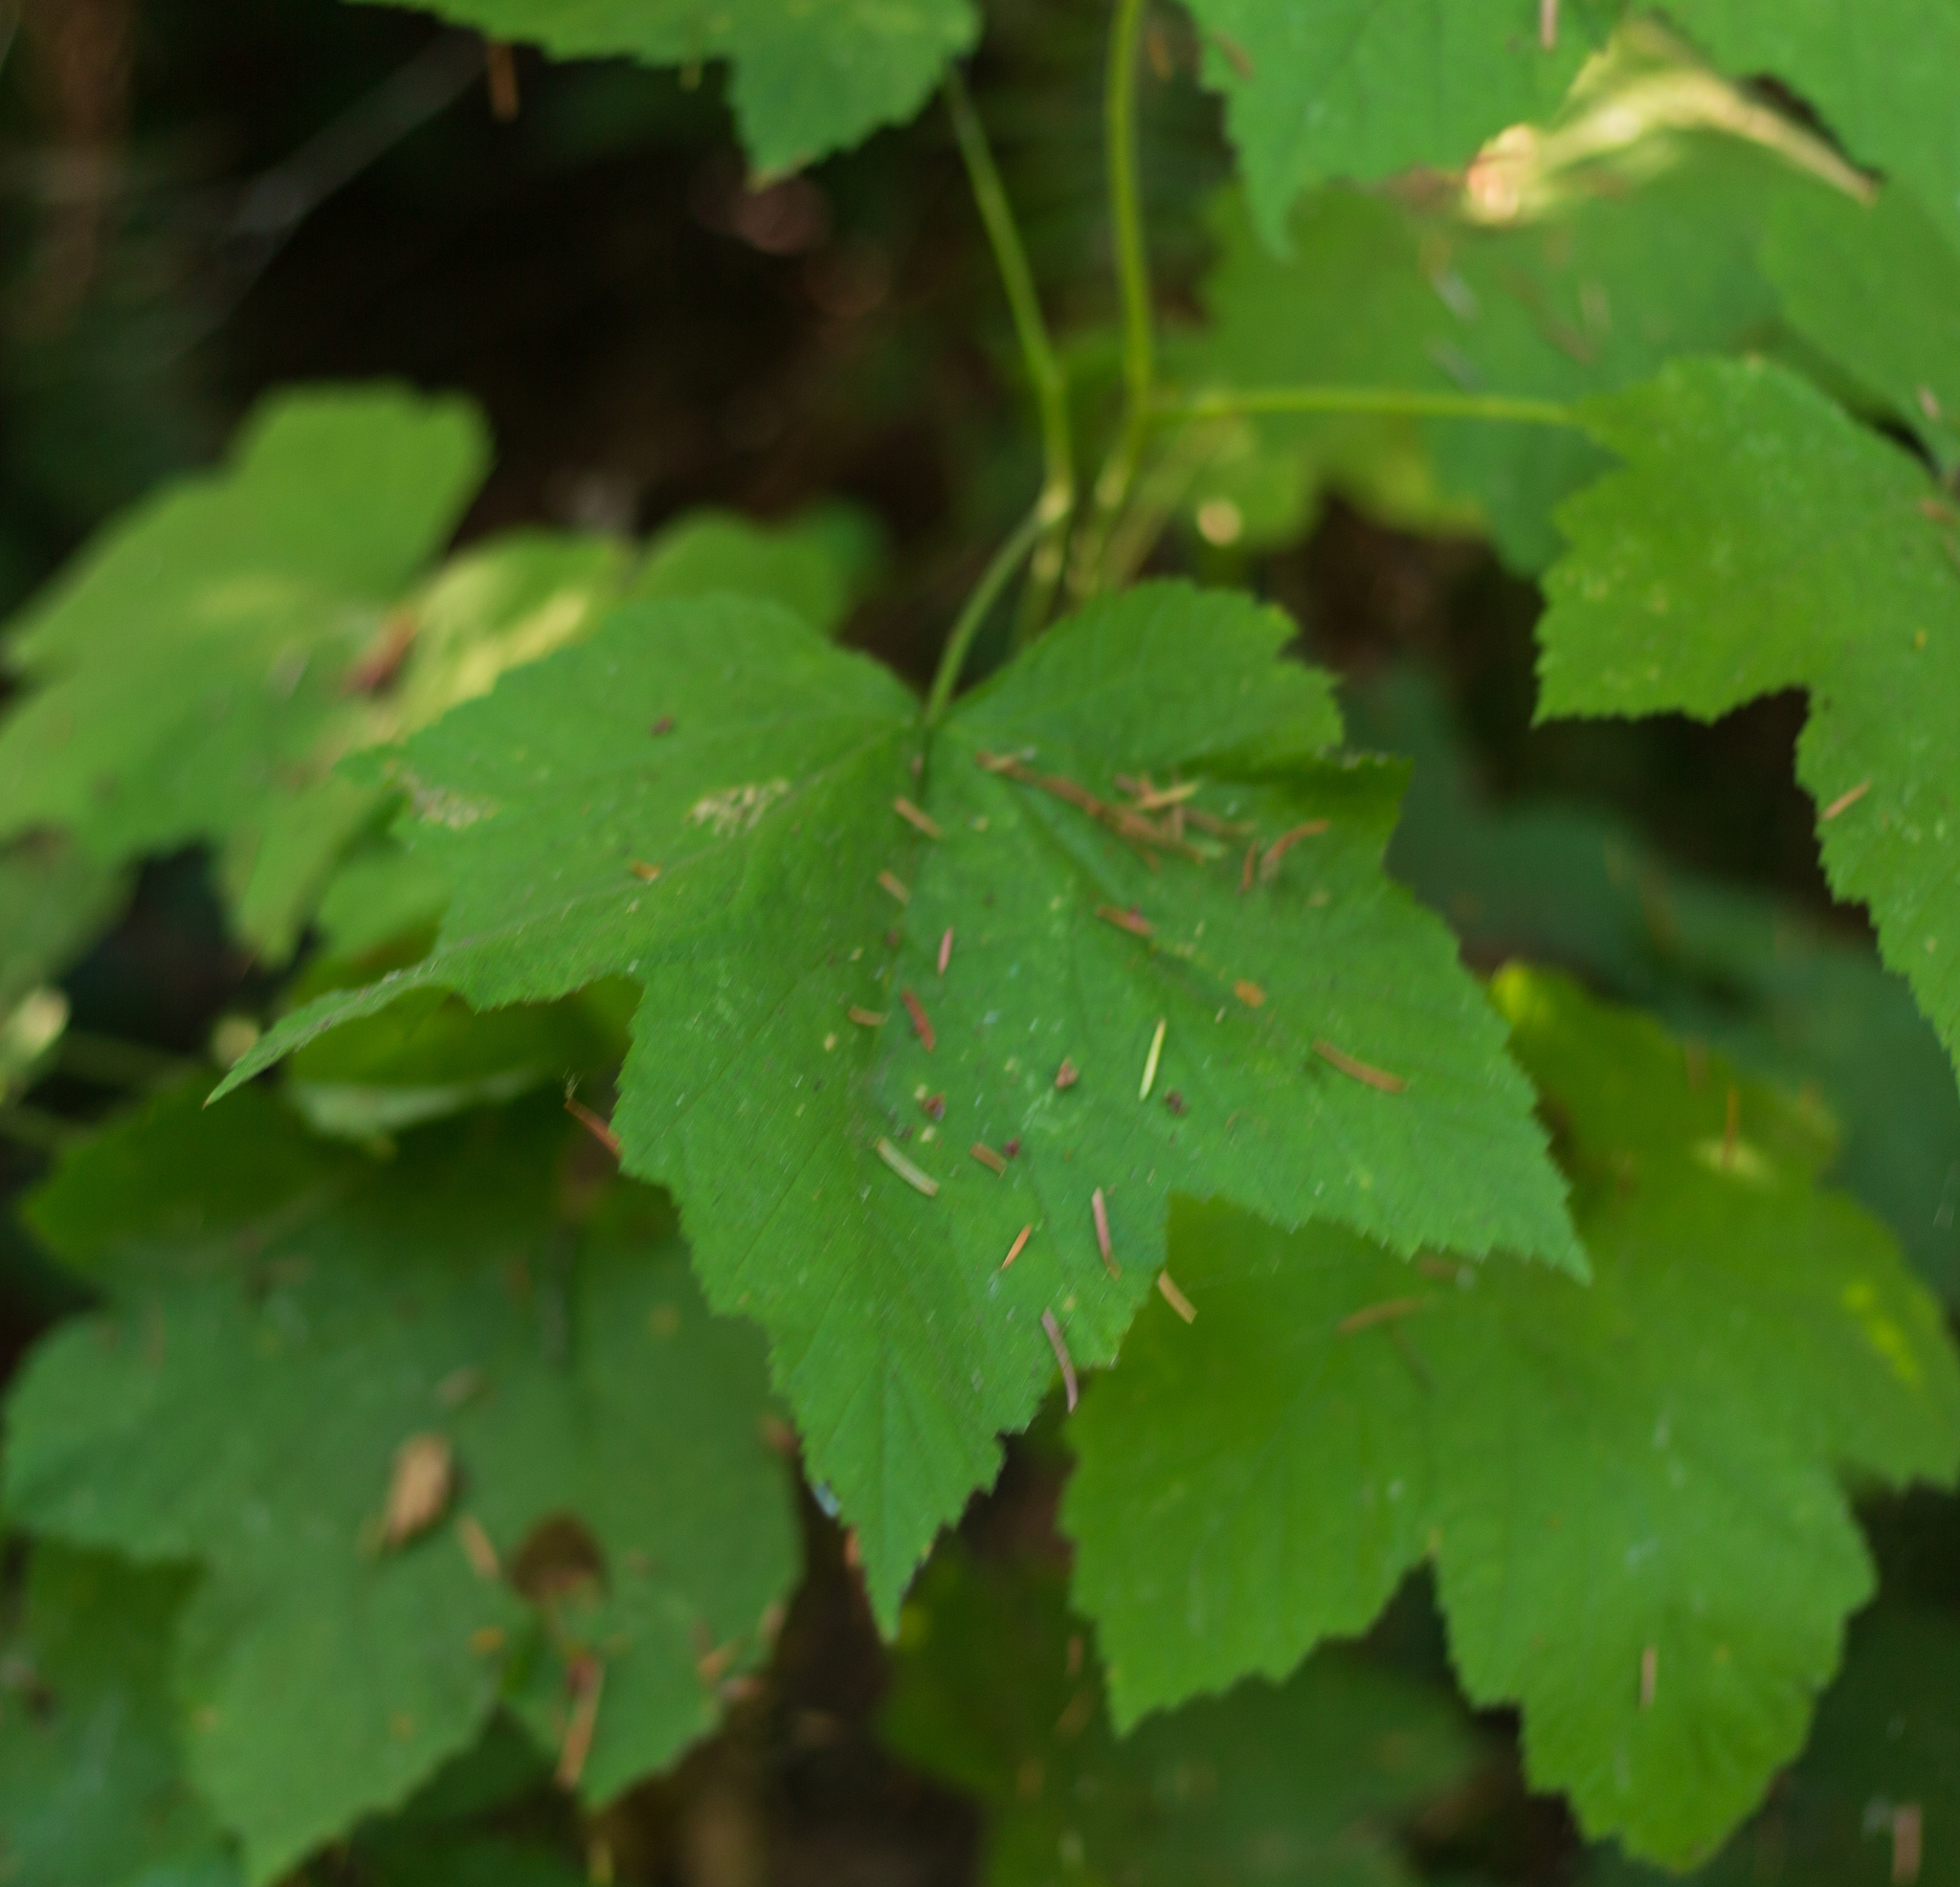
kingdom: Plantae
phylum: Tracheophyta
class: Magnoliopsida
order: Rosales
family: Rosaceae
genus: Rubus
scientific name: Rubus parviflorus
